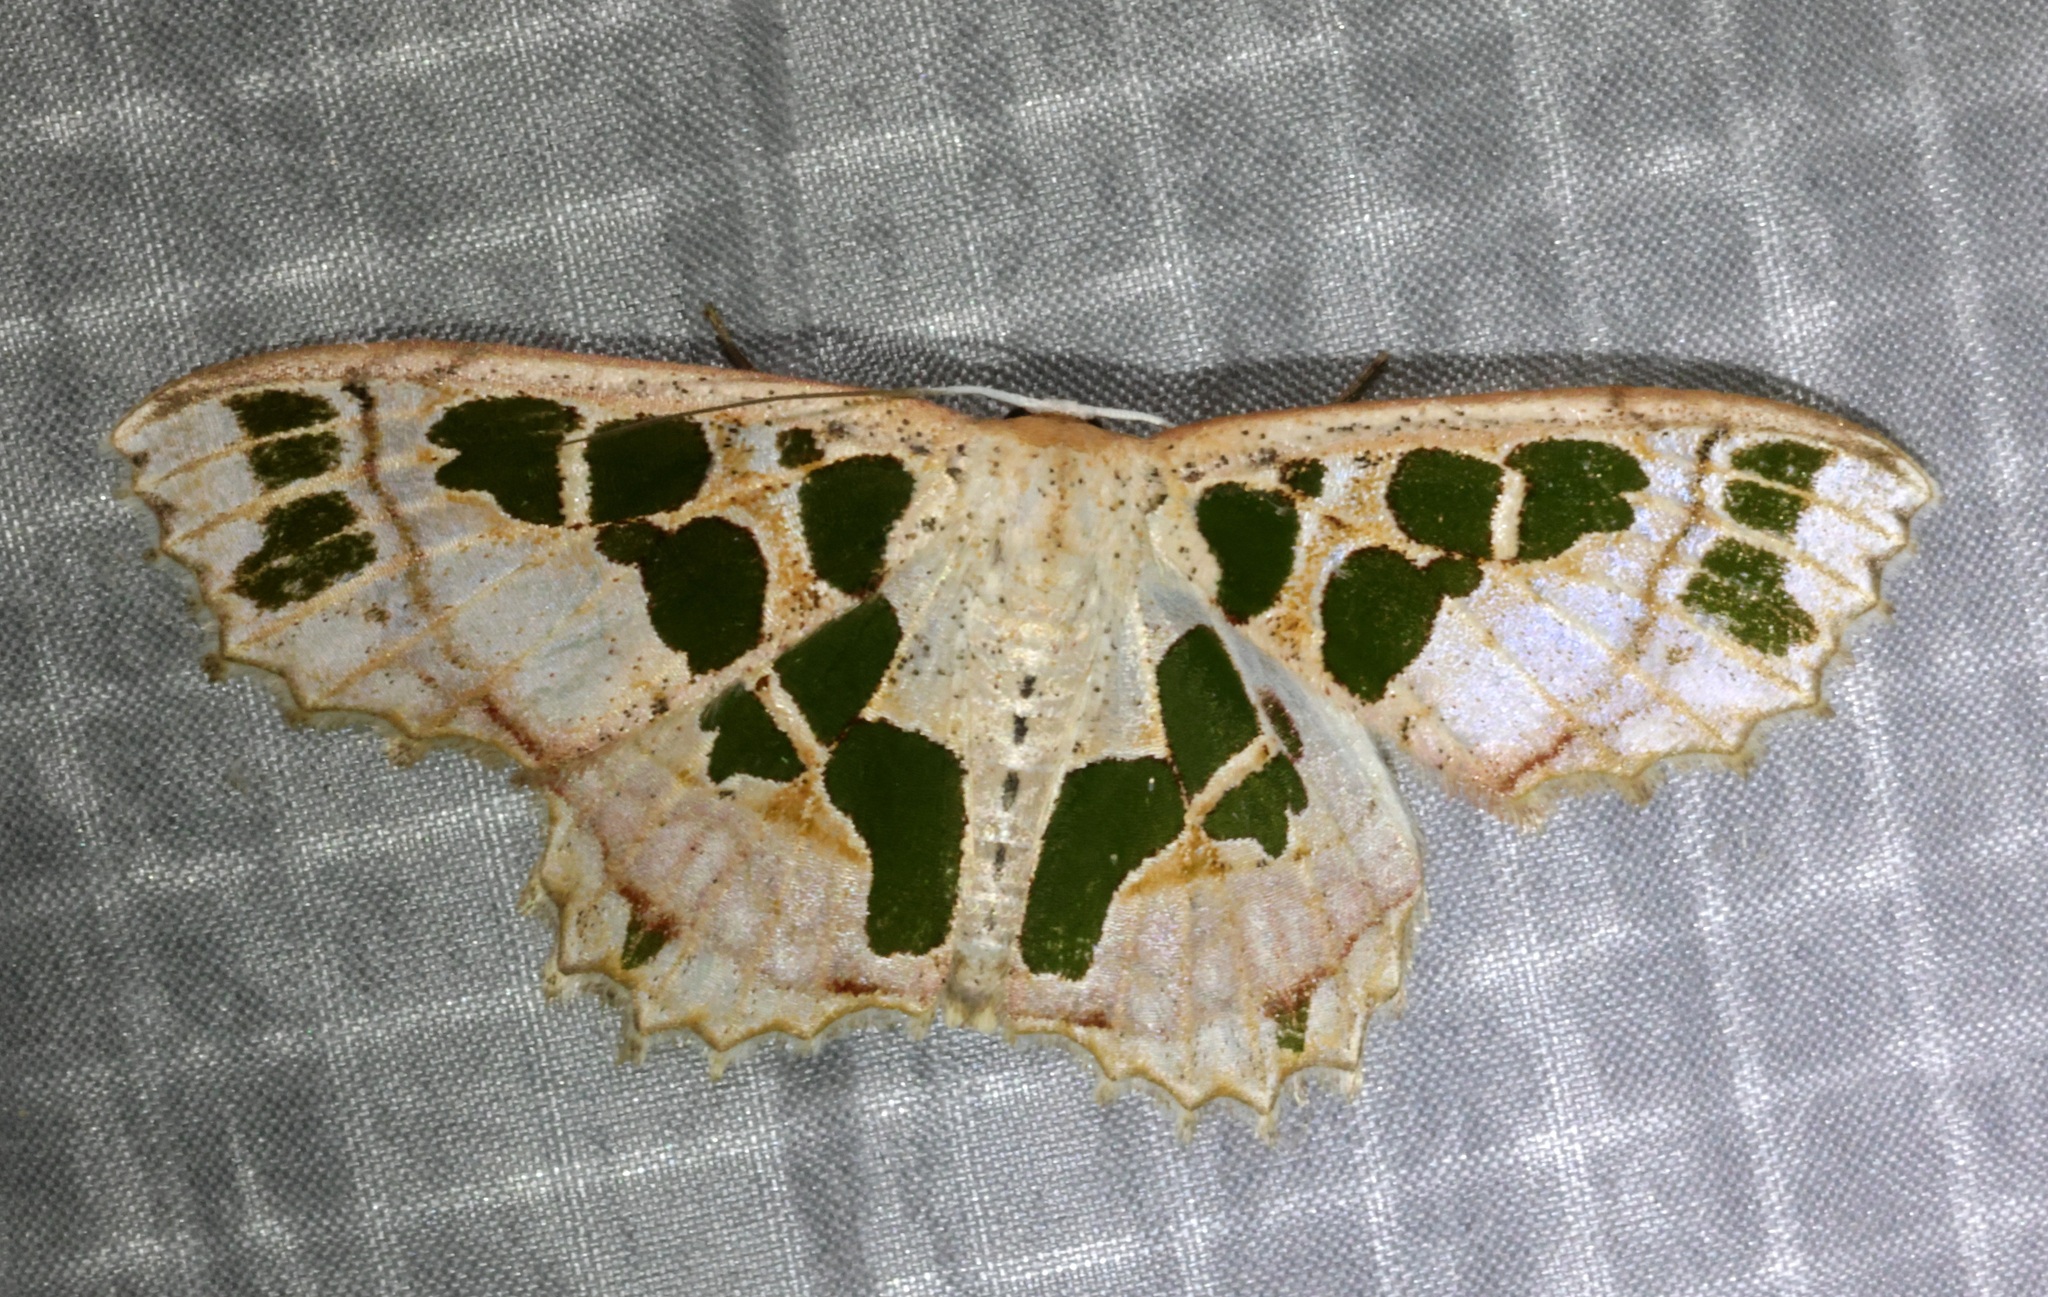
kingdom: Animalia
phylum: Arthropoda
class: Insecta
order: Lepidoptera
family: Geometridae
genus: Scopula
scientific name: Scopula divisaria
